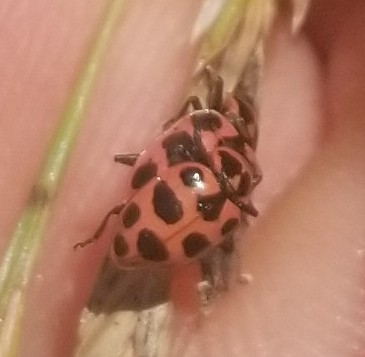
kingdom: Animalia
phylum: Arthropoda
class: Insecta
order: Coleoptera
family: Coccinellidae
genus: Coleomegilla
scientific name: Coleomegilla maculata
